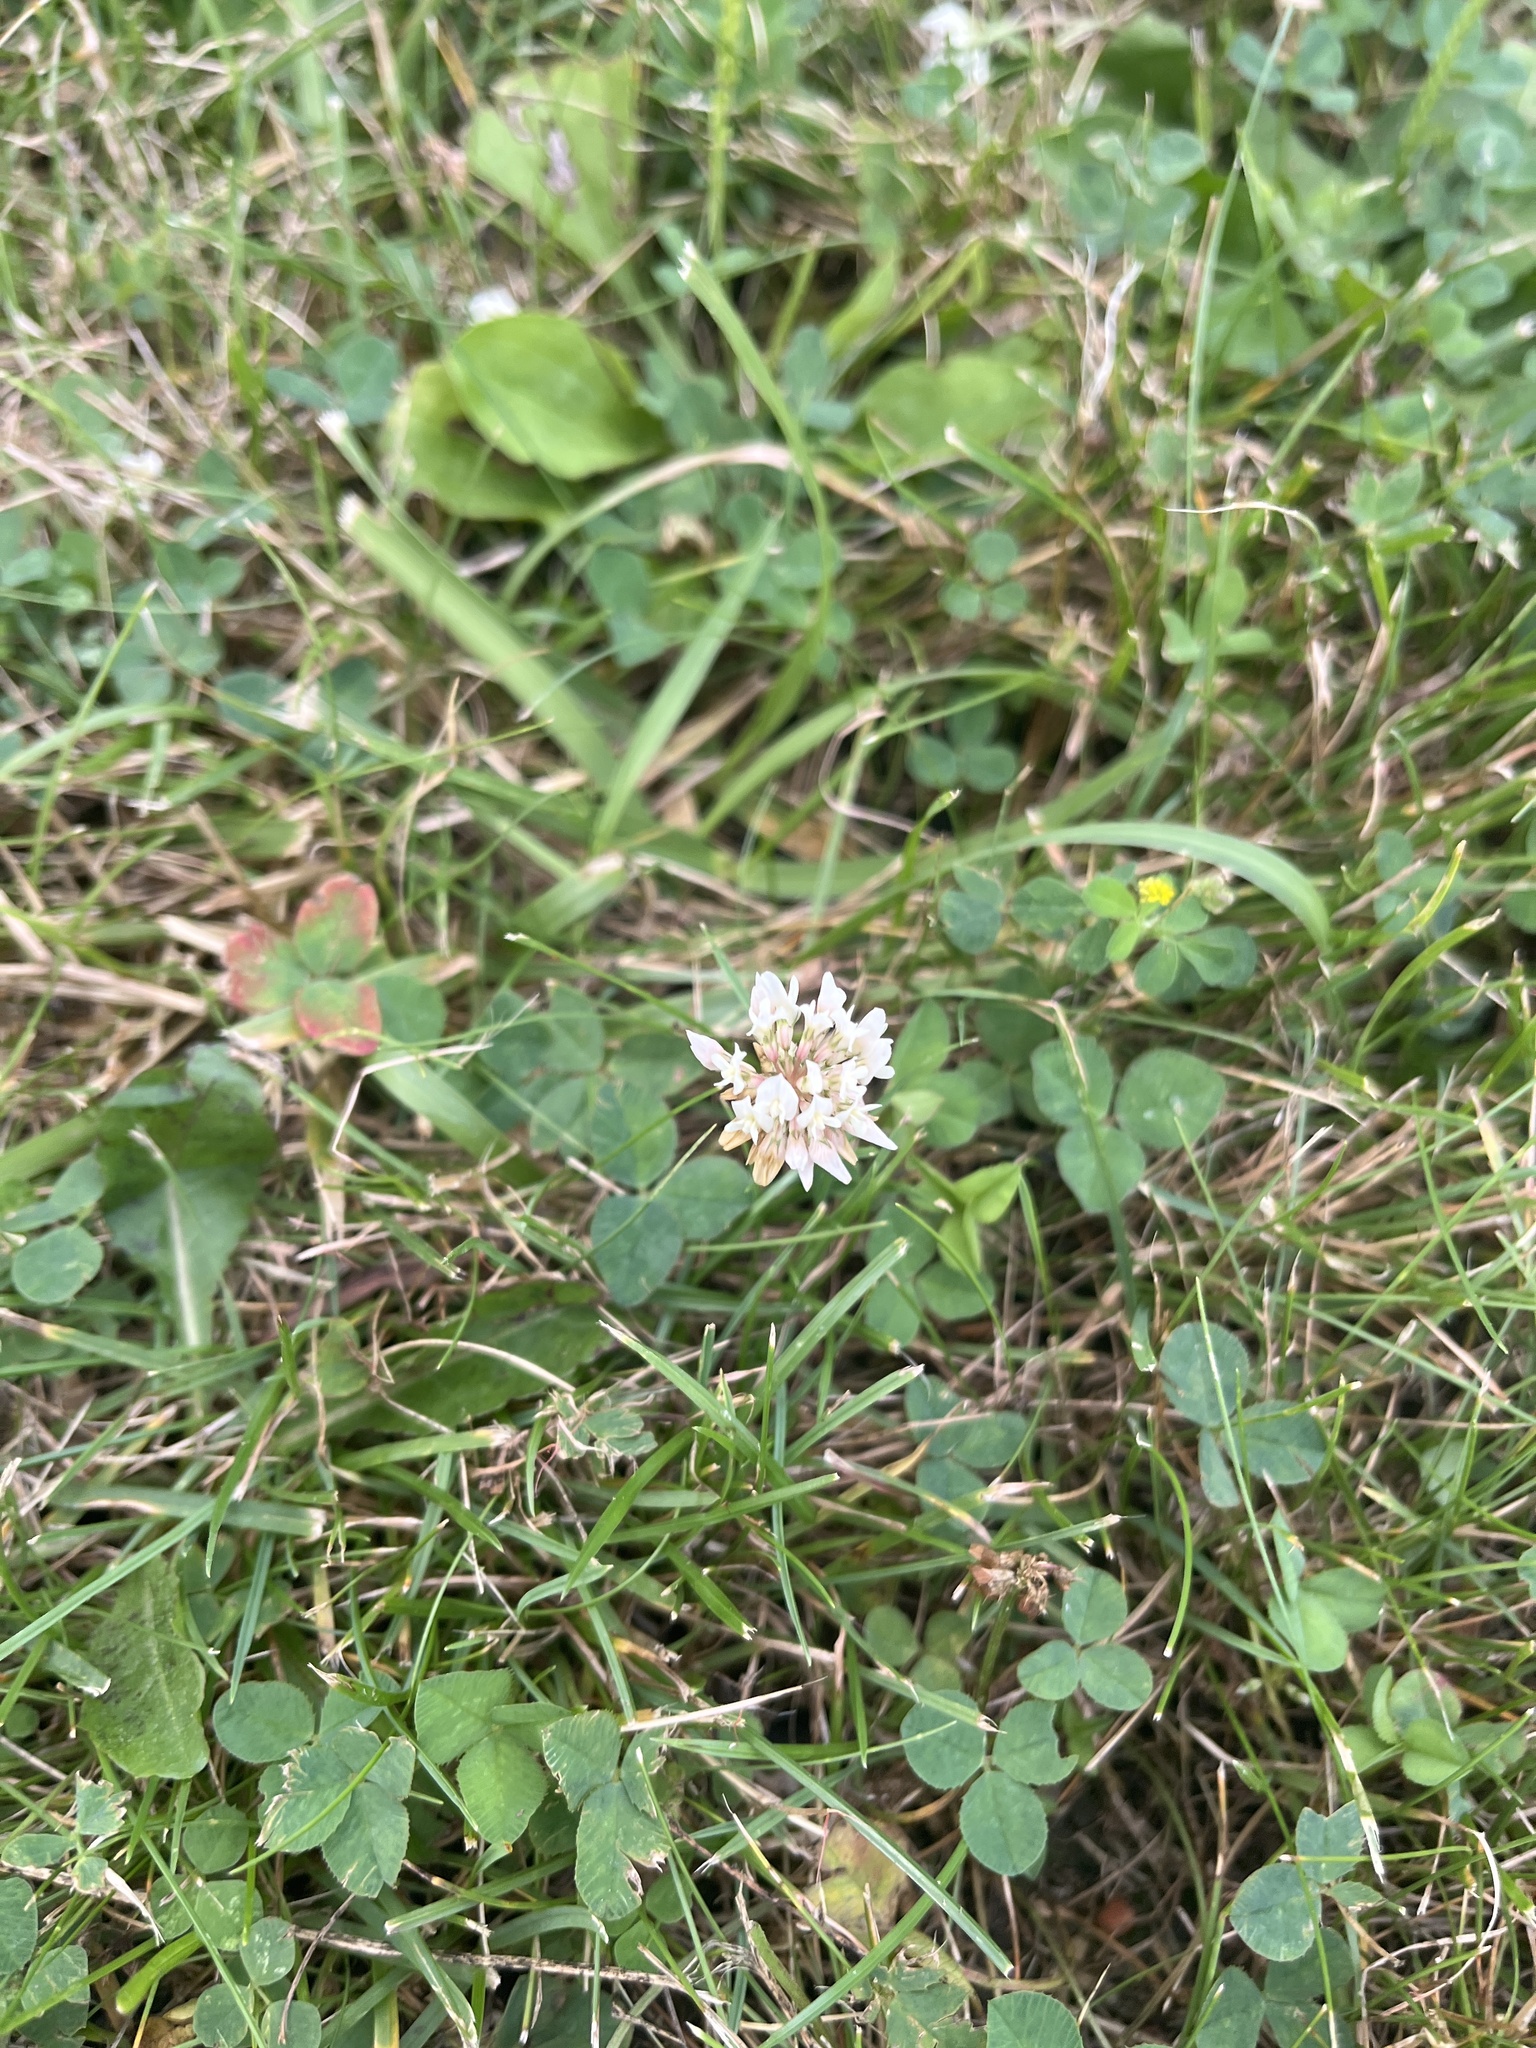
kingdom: Plantae
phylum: Tracheophyta
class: Magnoliopsida
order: Fabales
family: Fabaceae
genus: Trifolium
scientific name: Trifolium repens
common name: White clover
